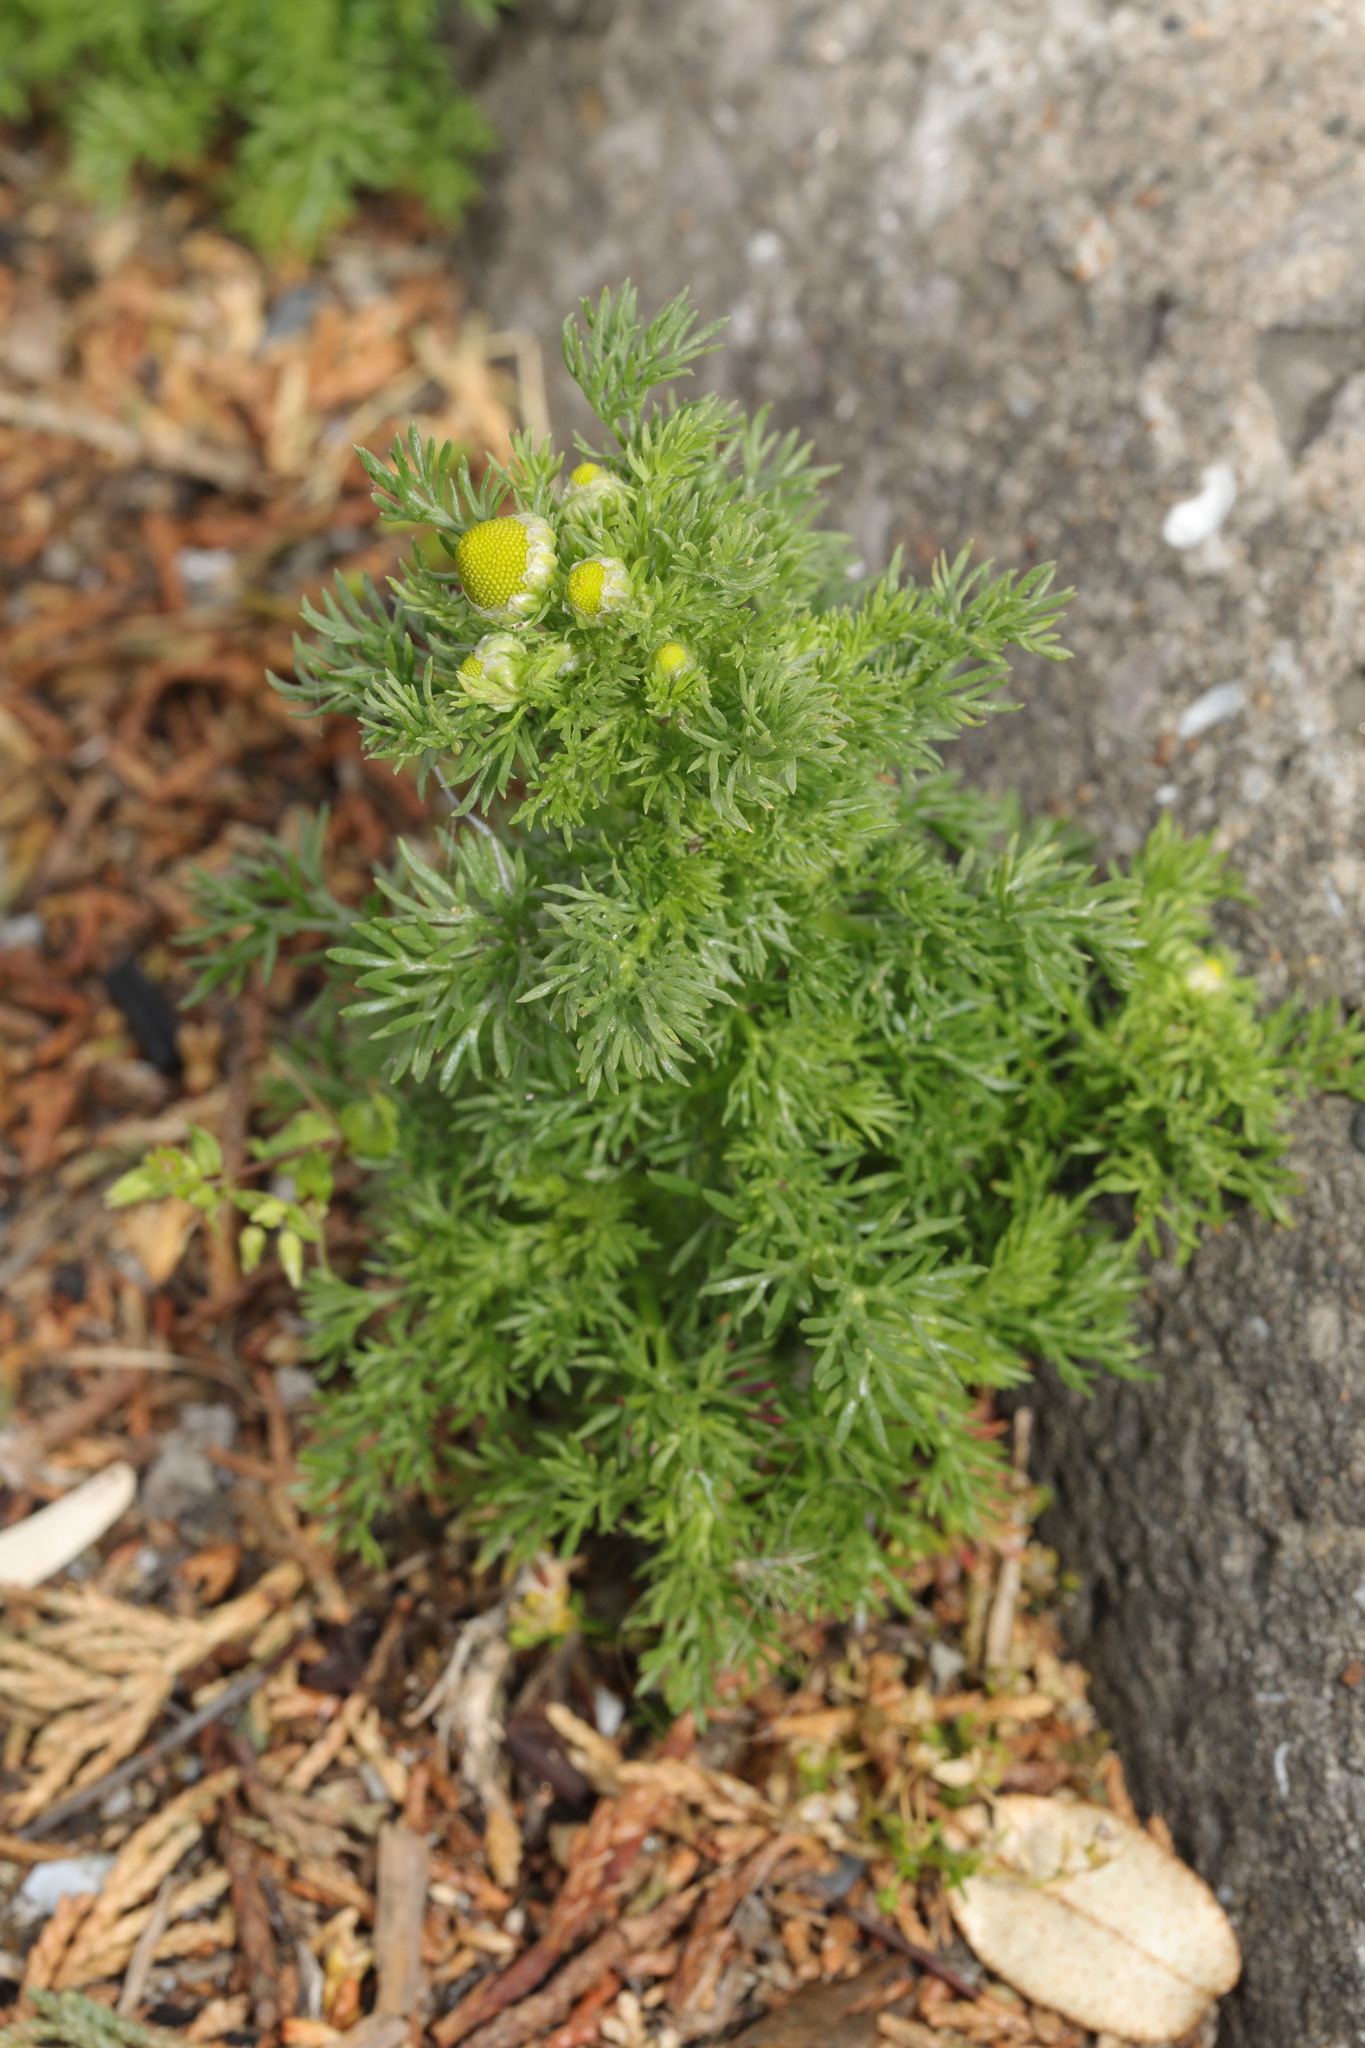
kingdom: Plantae
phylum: Tracheophyta
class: Magnoliopsida
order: Asterales
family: Asteraceae
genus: Matricaria
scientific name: Matricaria discoidea
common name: Disc mayweed
